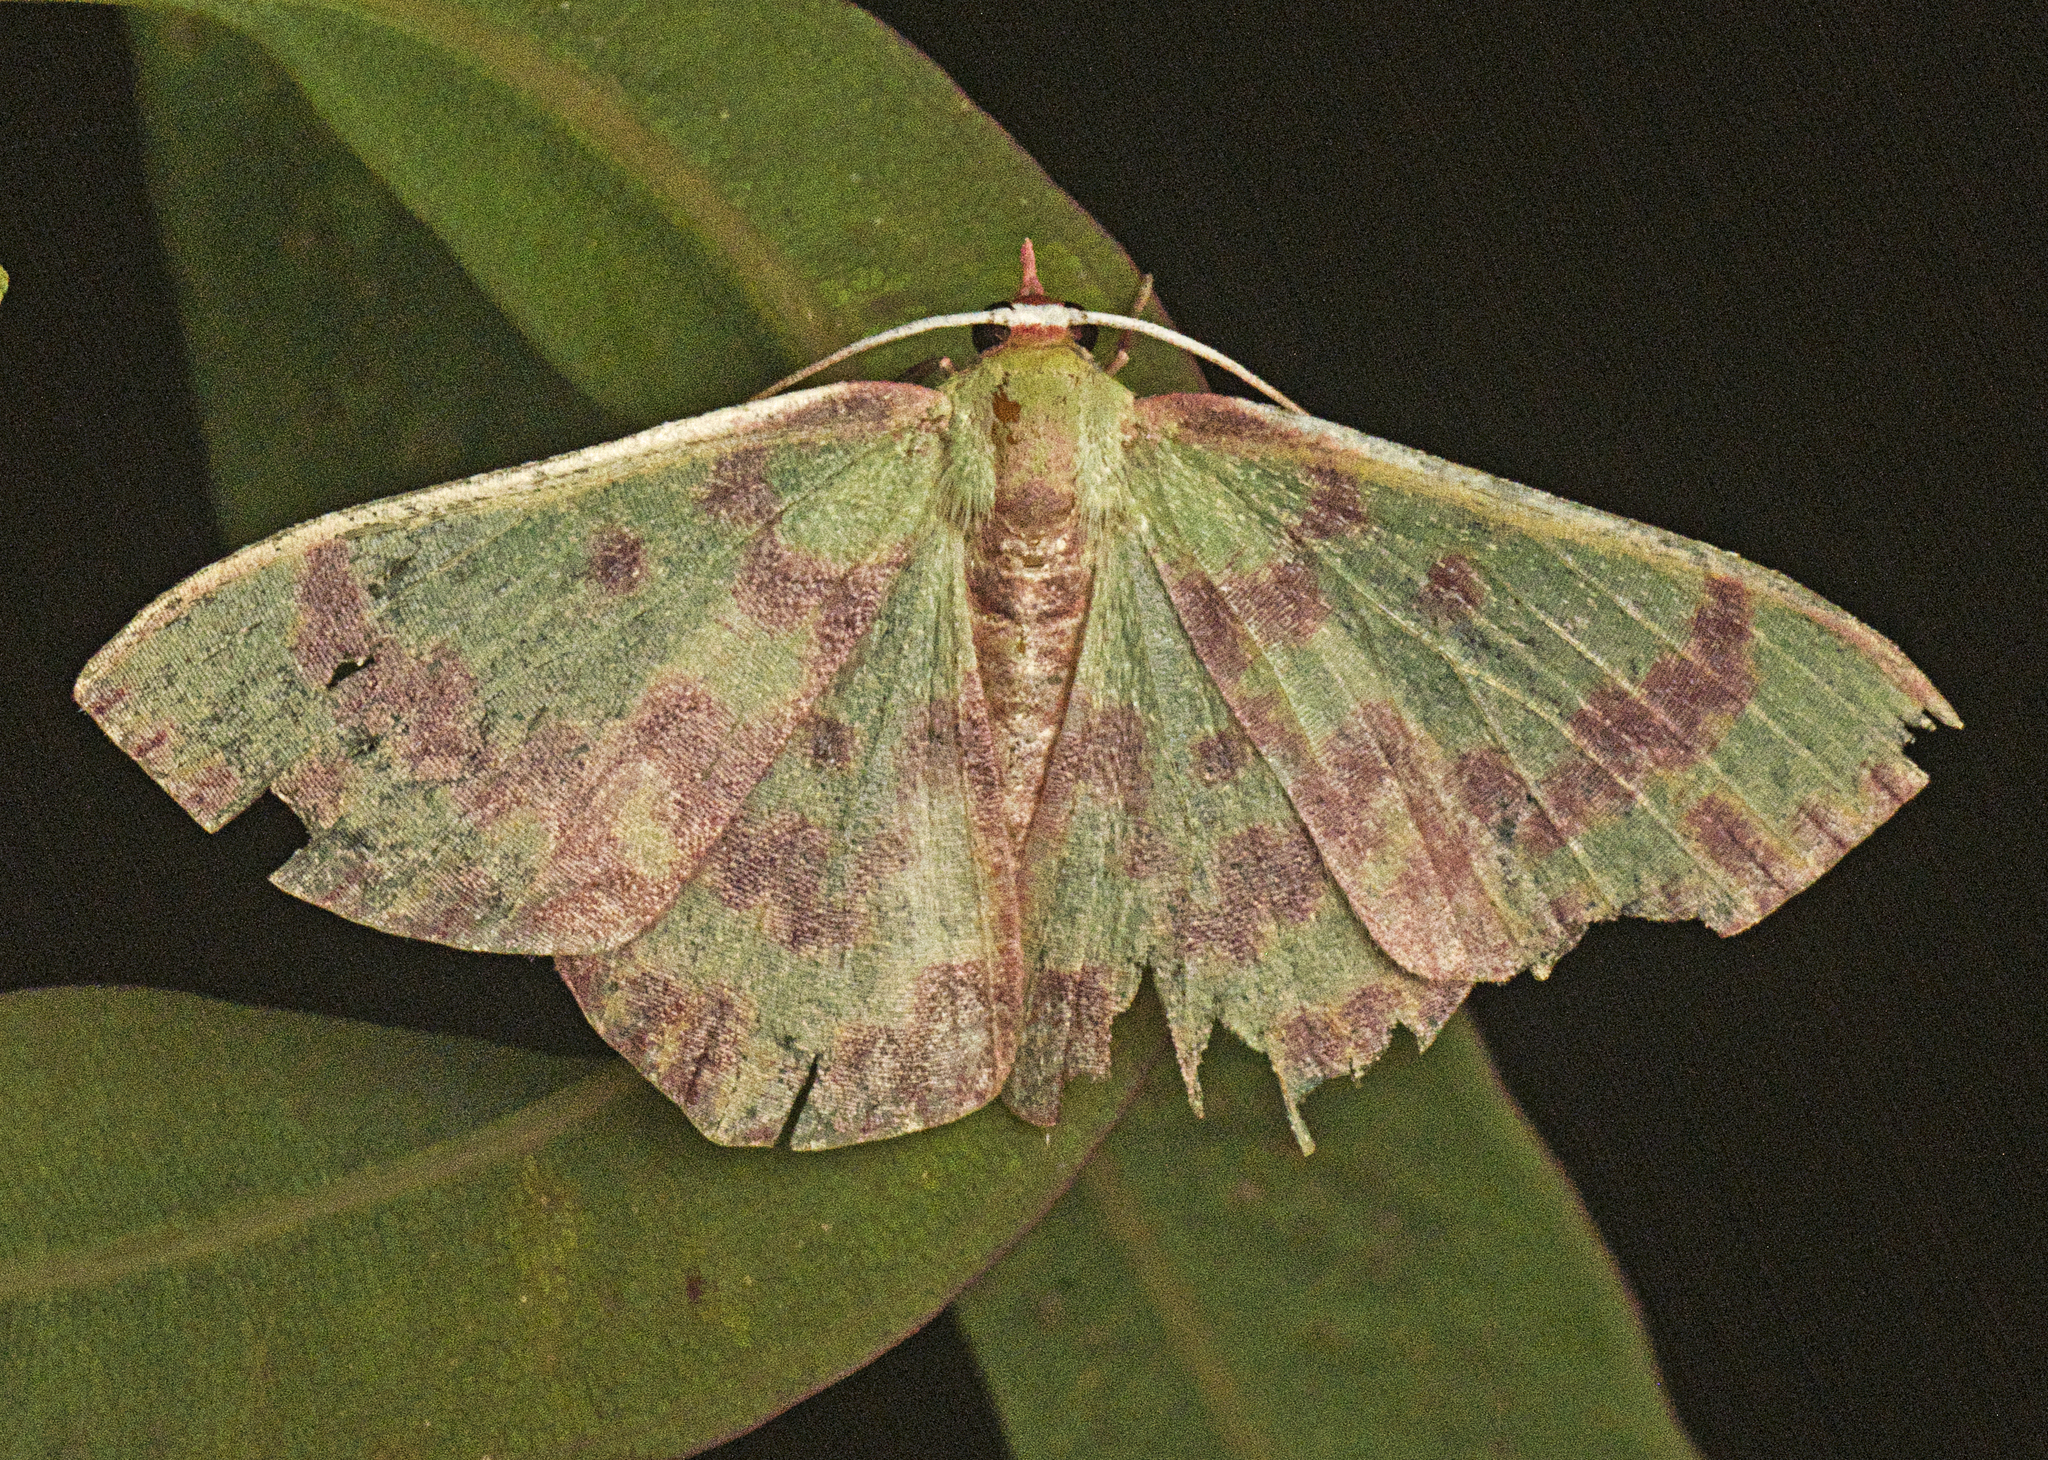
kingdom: Animalia
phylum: Arthropoda
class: Insecta
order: Lepidoptera
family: Geometridae
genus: Prasinocyma
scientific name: Prasinocyma rhodocosma
